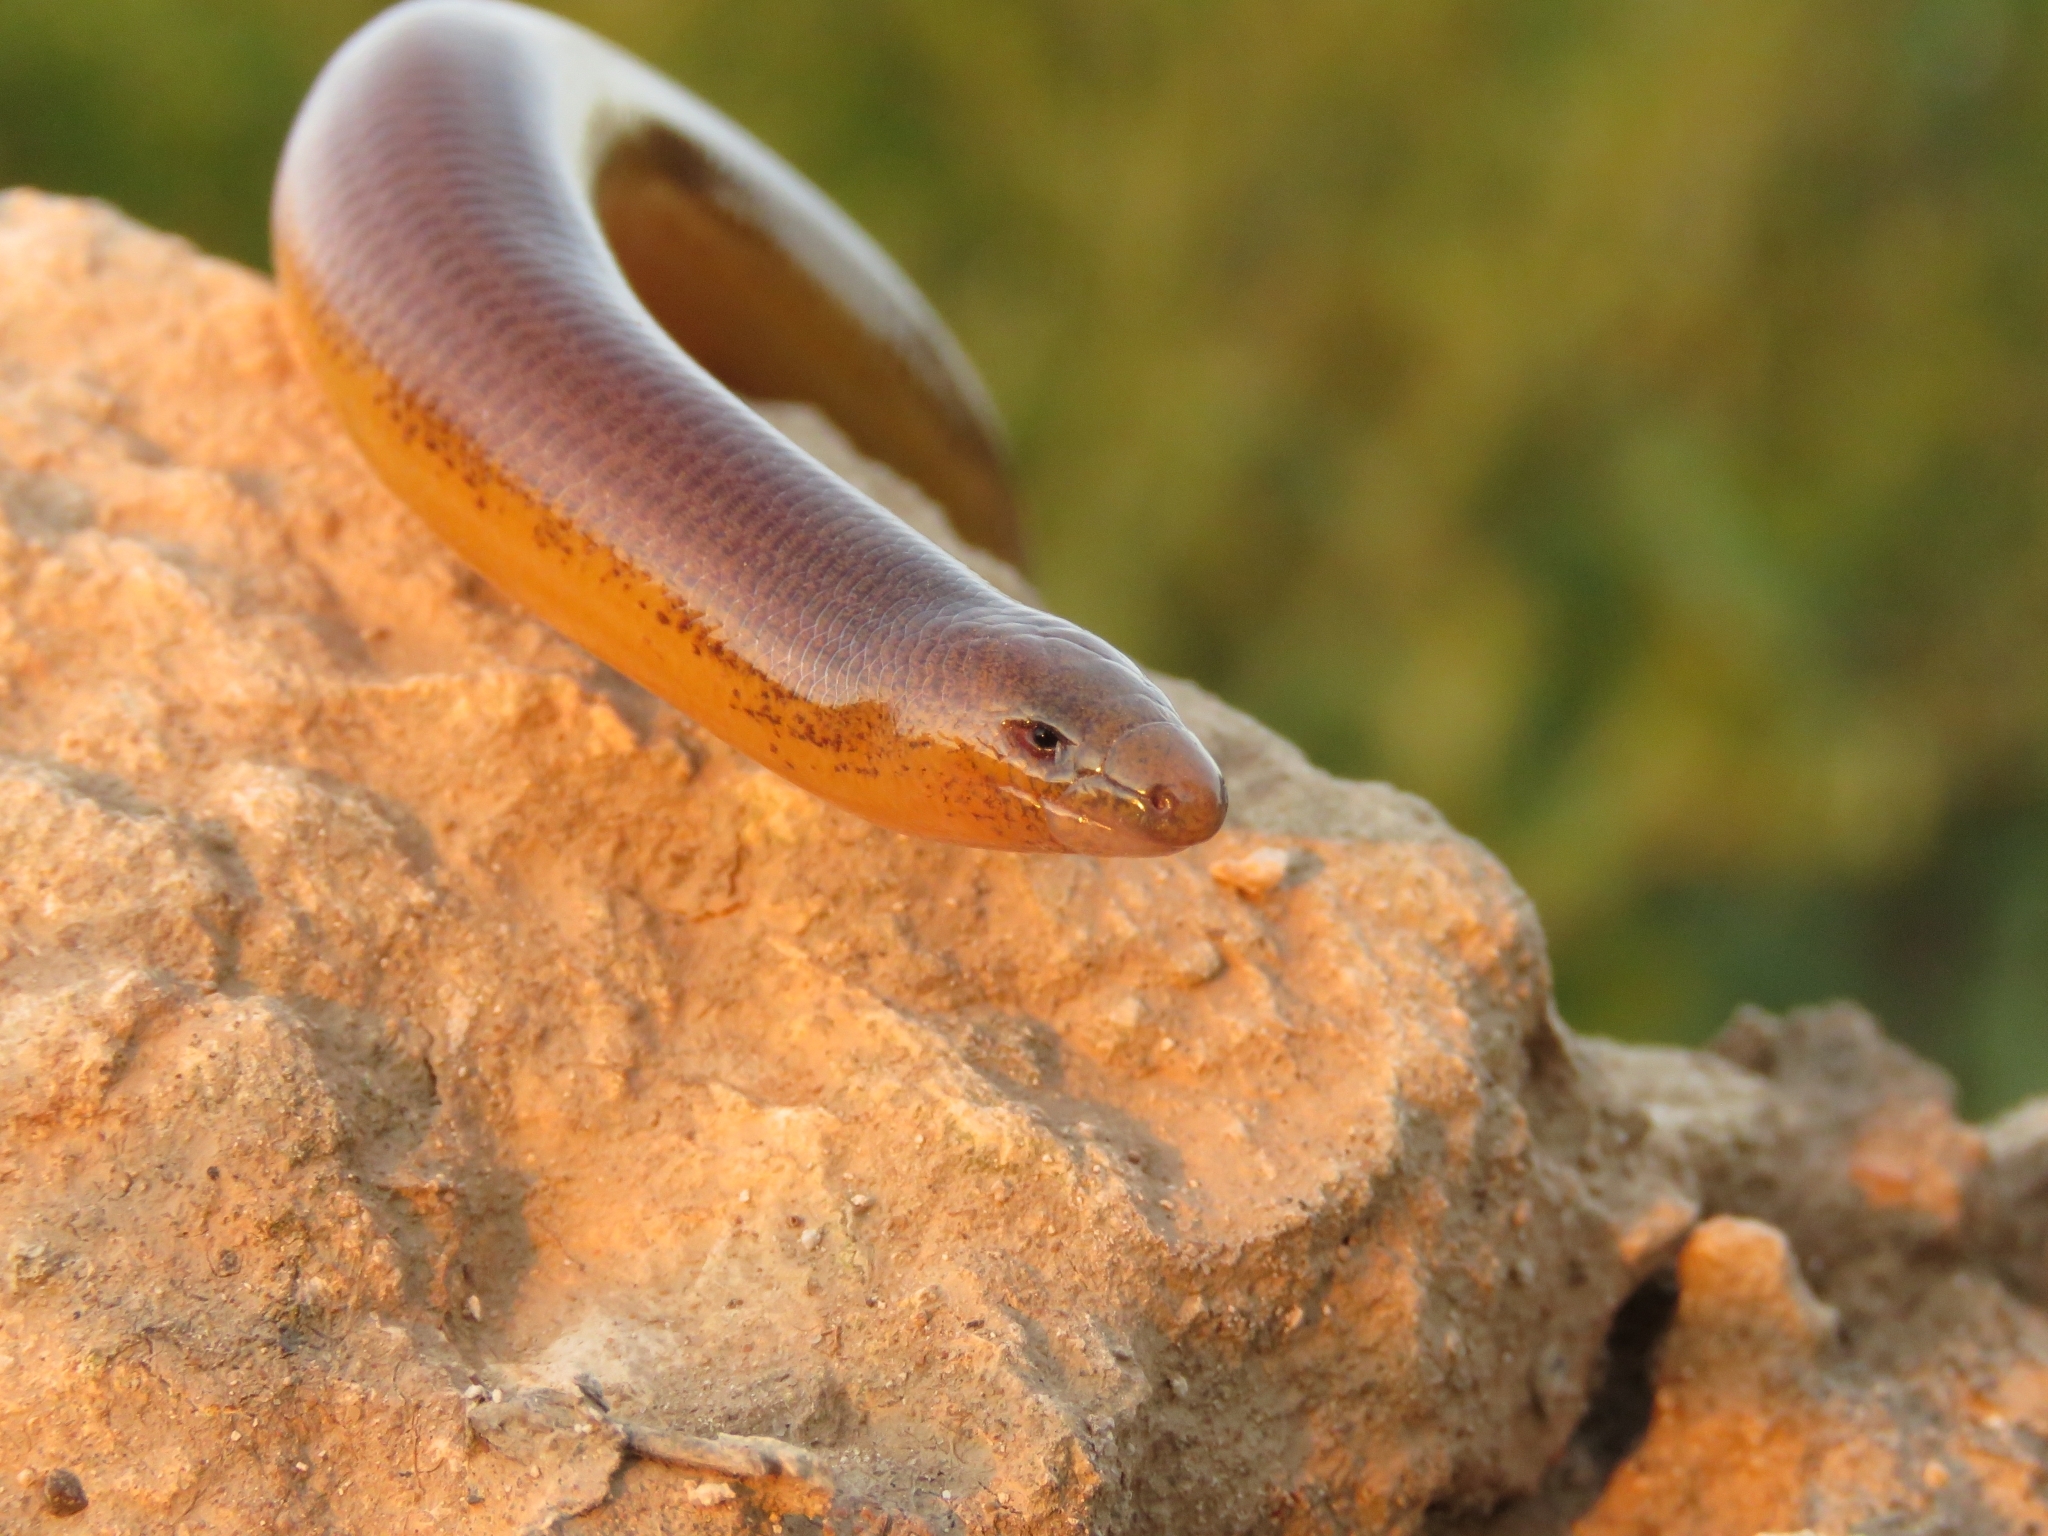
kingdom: Animalia
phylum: Chordata
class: Squamata
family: Scincidae
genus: Acontias
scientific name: Acontias orientalis
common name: Eastern cape legless skink
